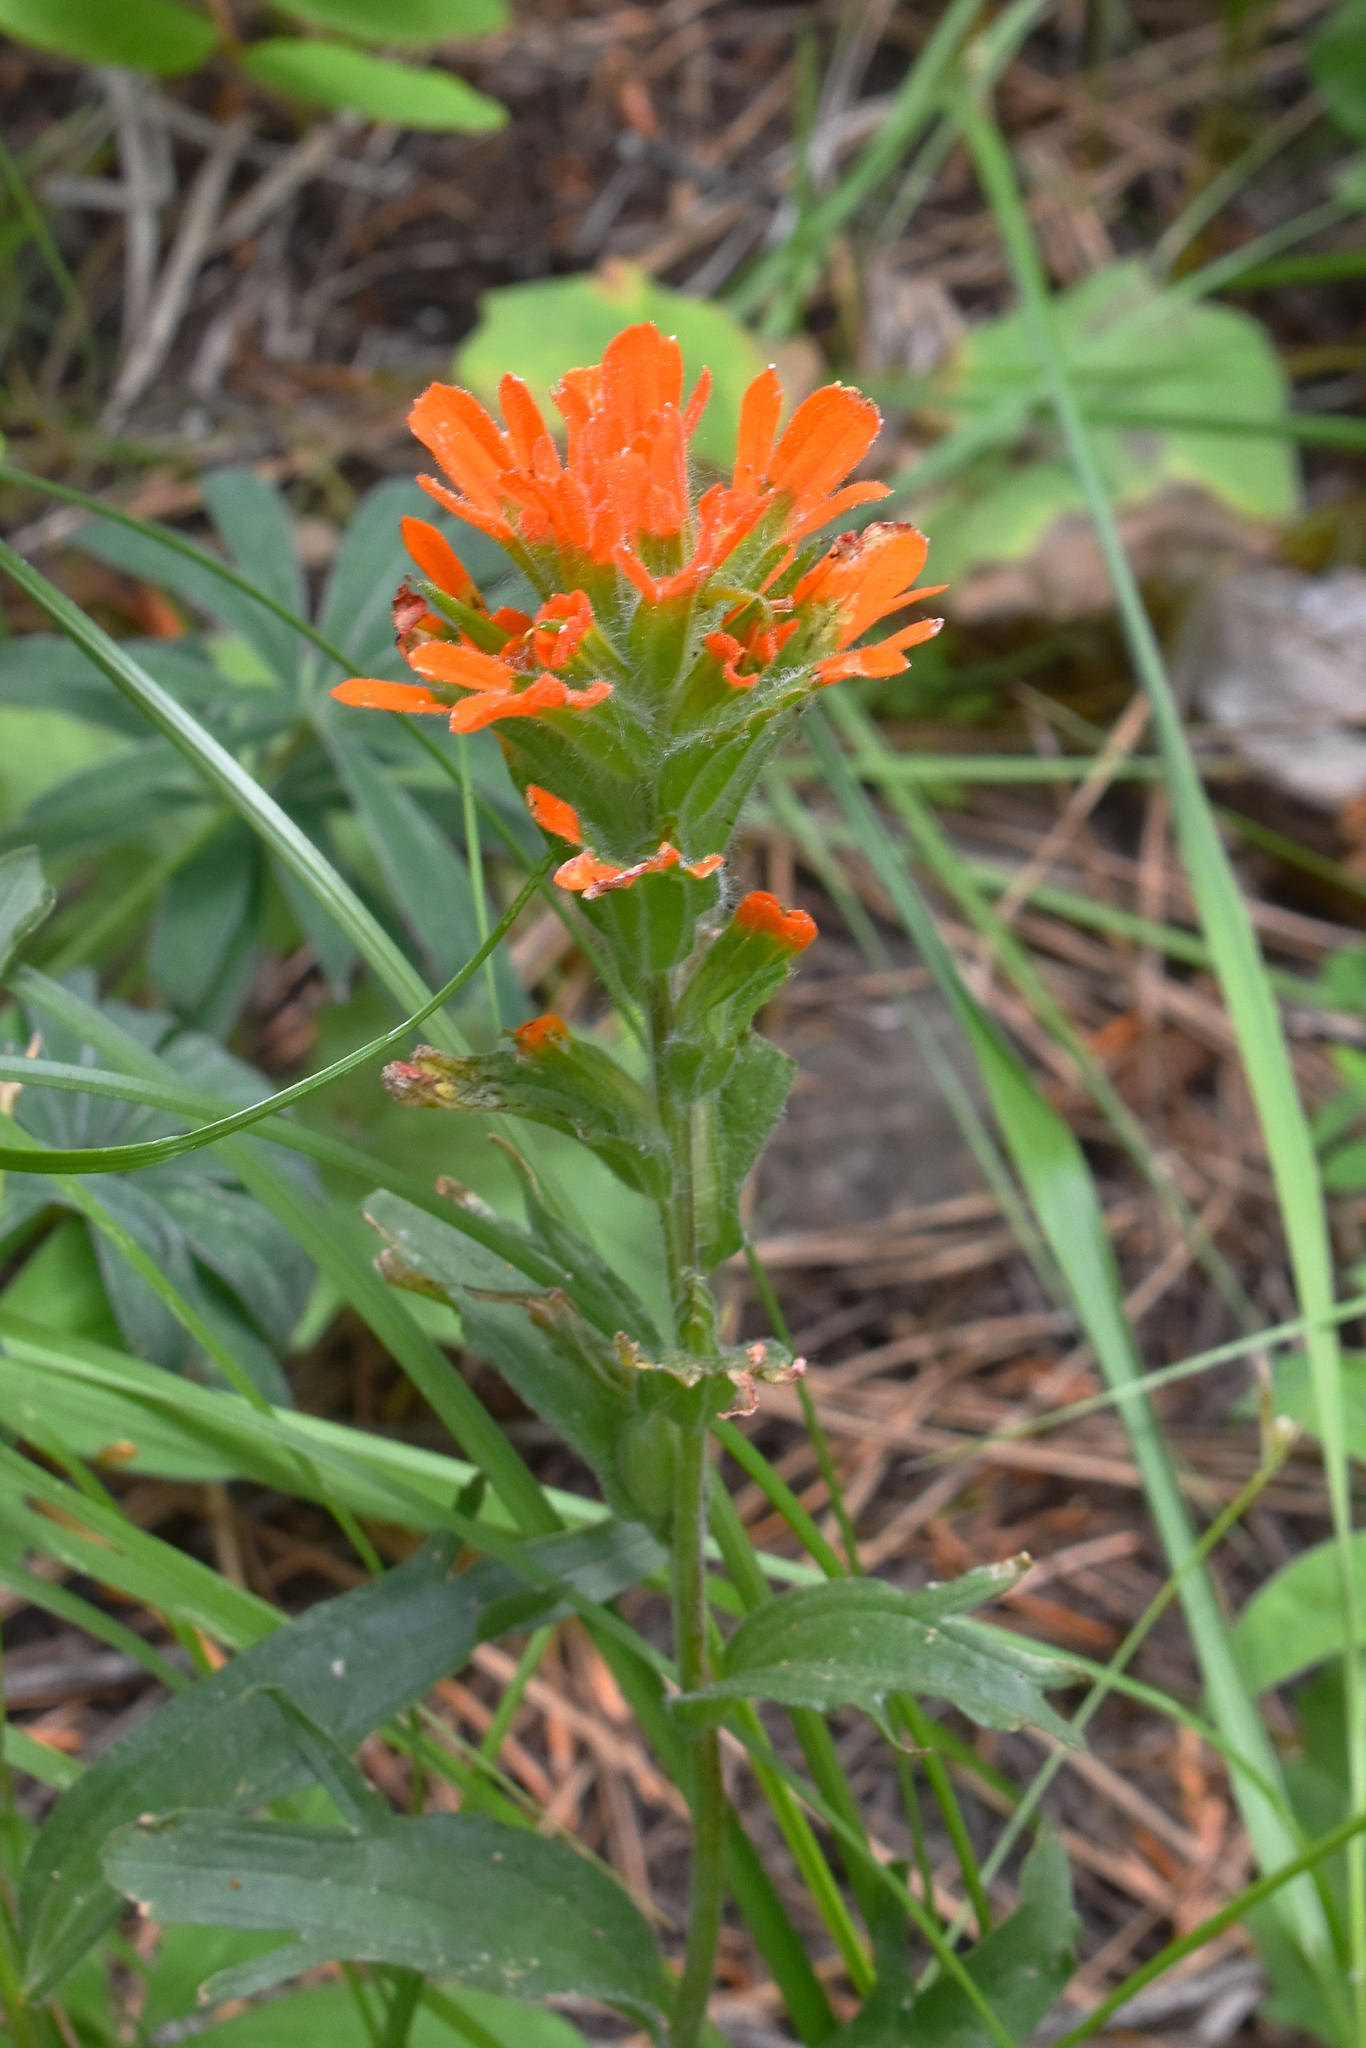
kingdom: Plantae
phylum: Tracheophyta
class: Magnoliopsida
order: Lamiales
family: Orobanchaceae
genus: Castilleja
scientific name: Castilleja hispida
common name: Bristly paintbrush
